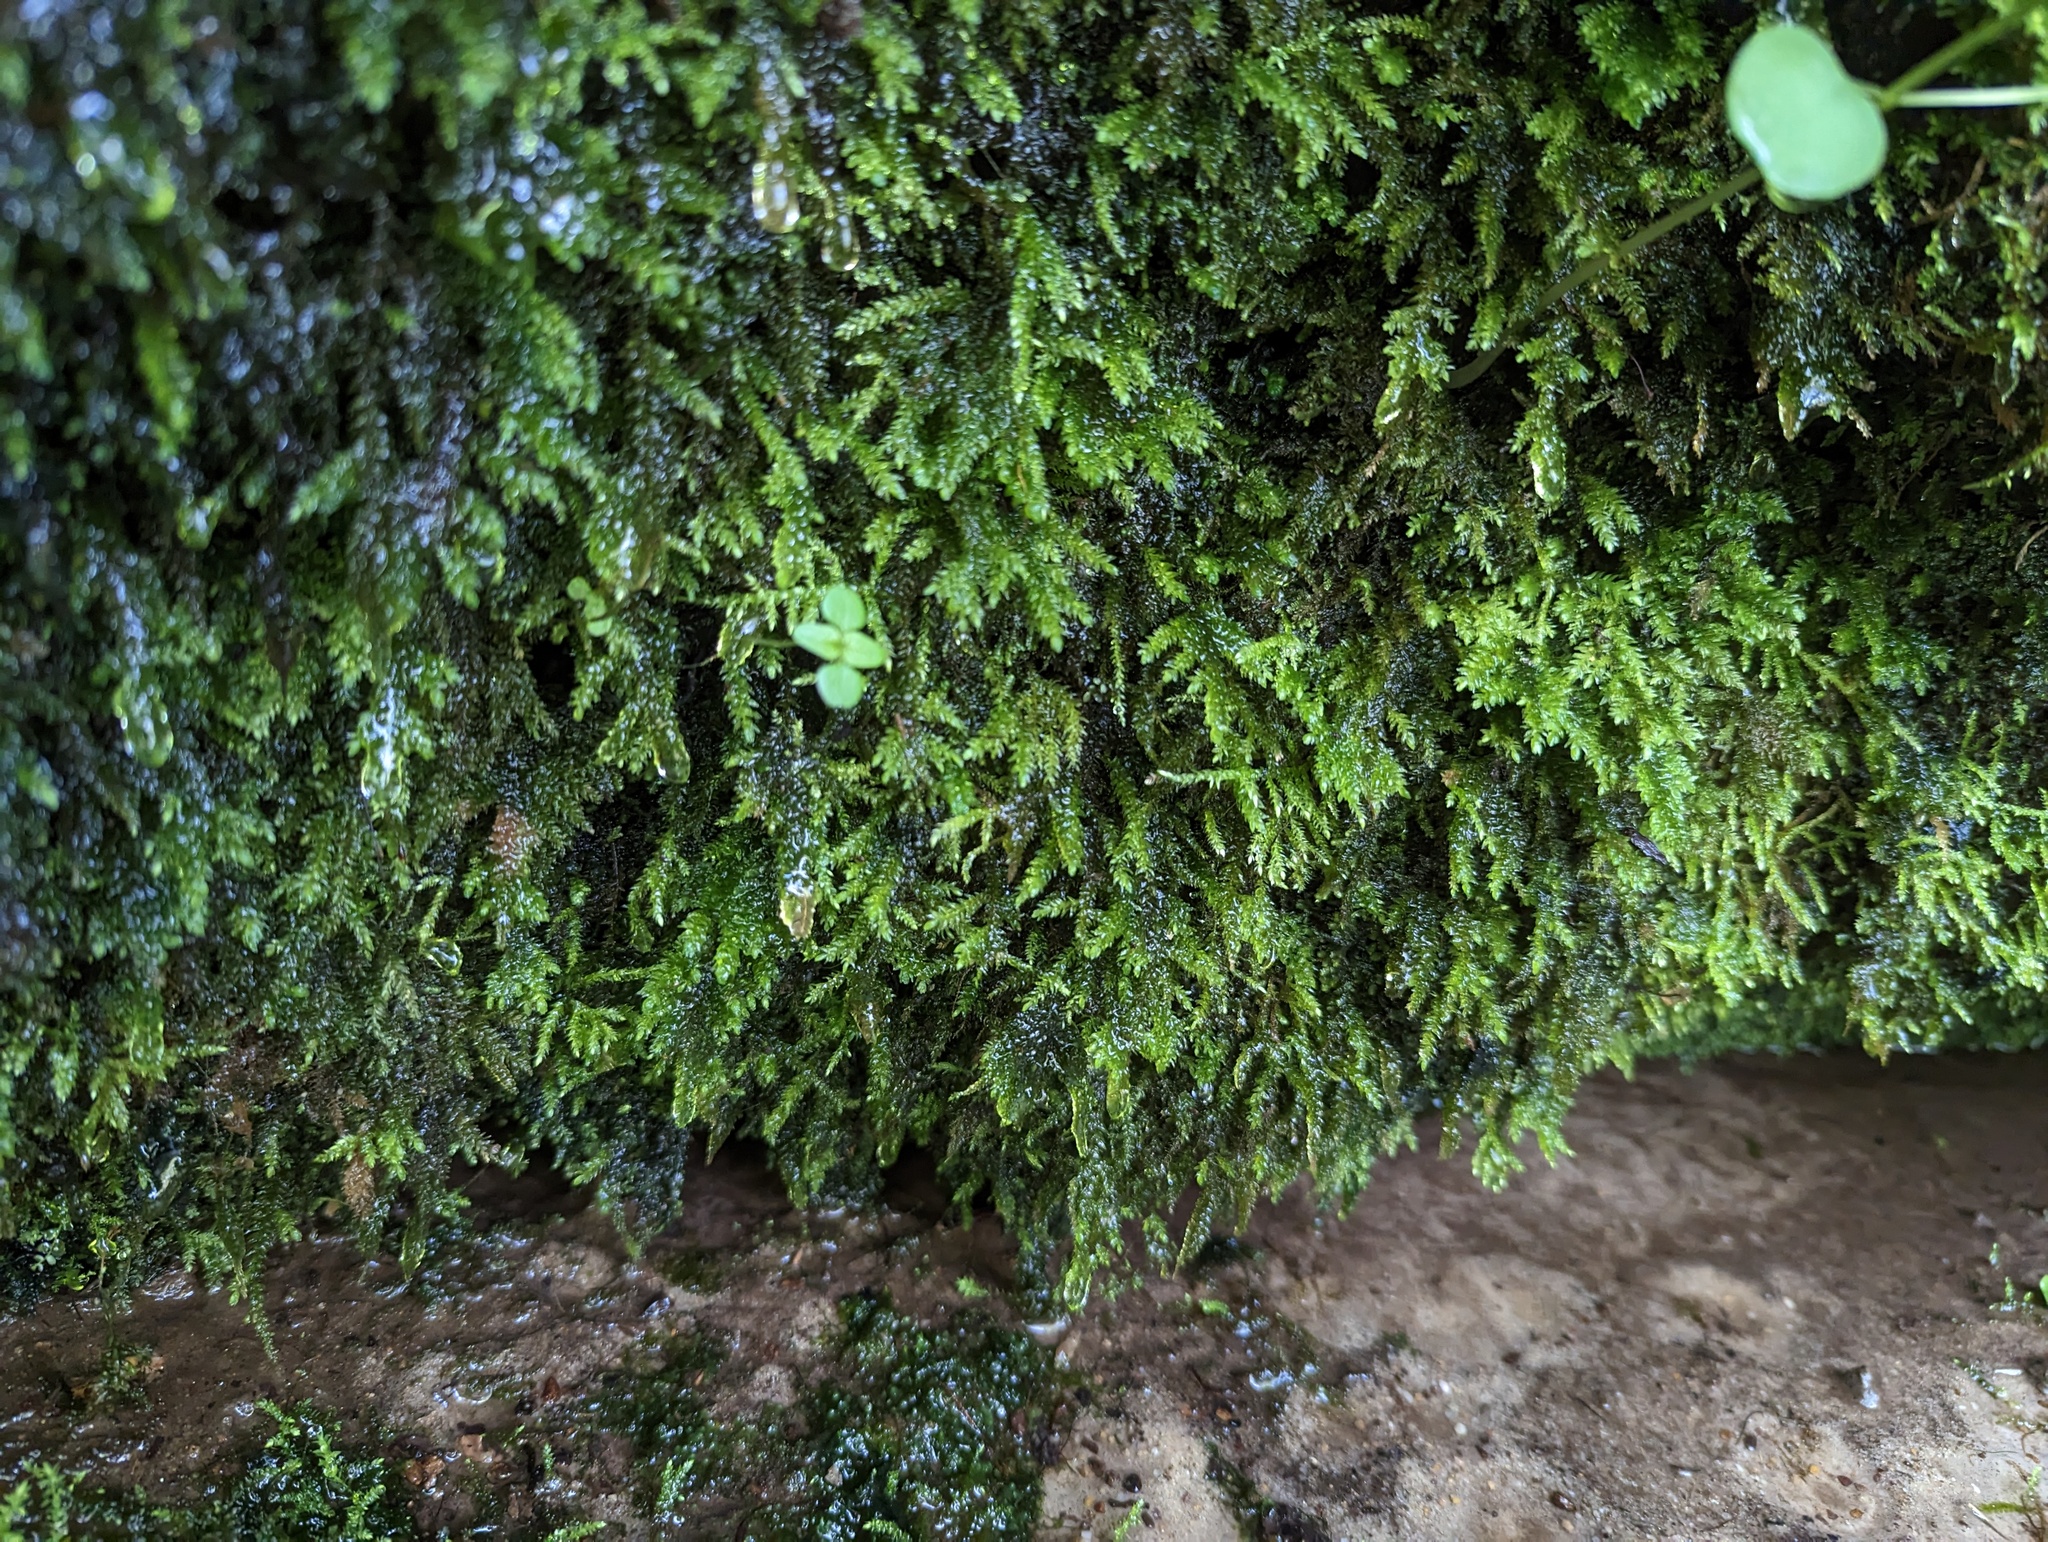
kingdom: Plantae
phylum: Bryophyta
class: Bryopsida
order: Hypnales
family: Neckeraceae
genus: Thamnobryum
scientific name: Thamnobryum subserratum
